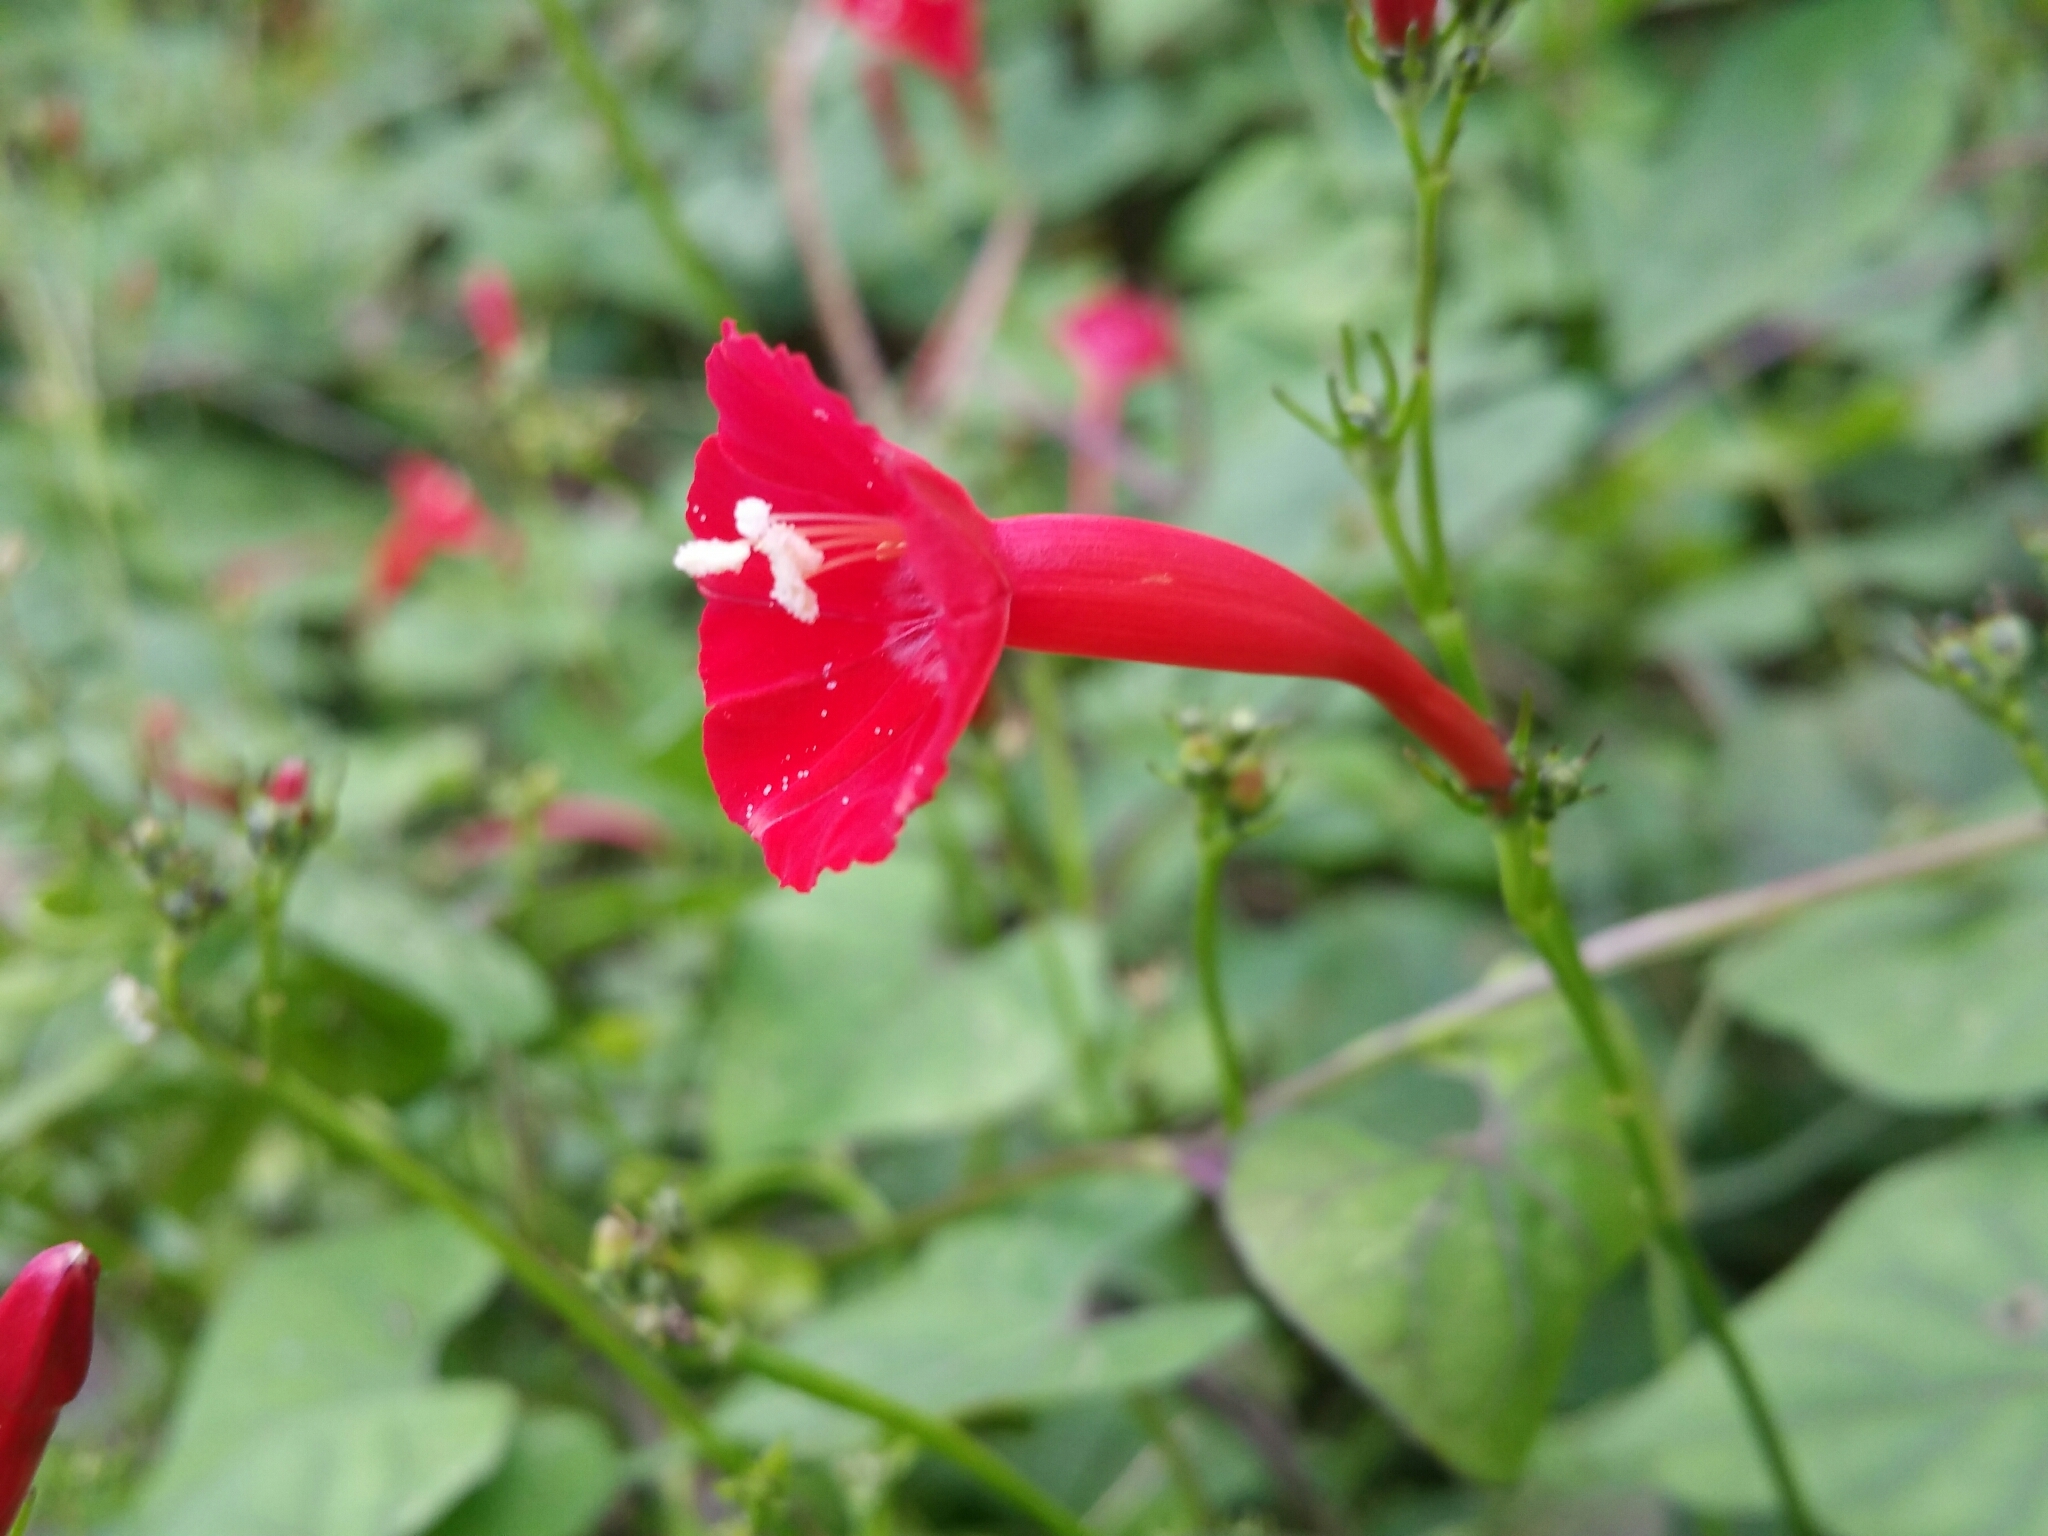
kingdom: Plantae
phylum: Tracheophyta
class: Magnoliopsida
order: Solanales
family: Convolvulaceae
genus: Ipomoea
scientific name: Ipomoea hederifolia
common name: Ivy-leaf morning-glory
